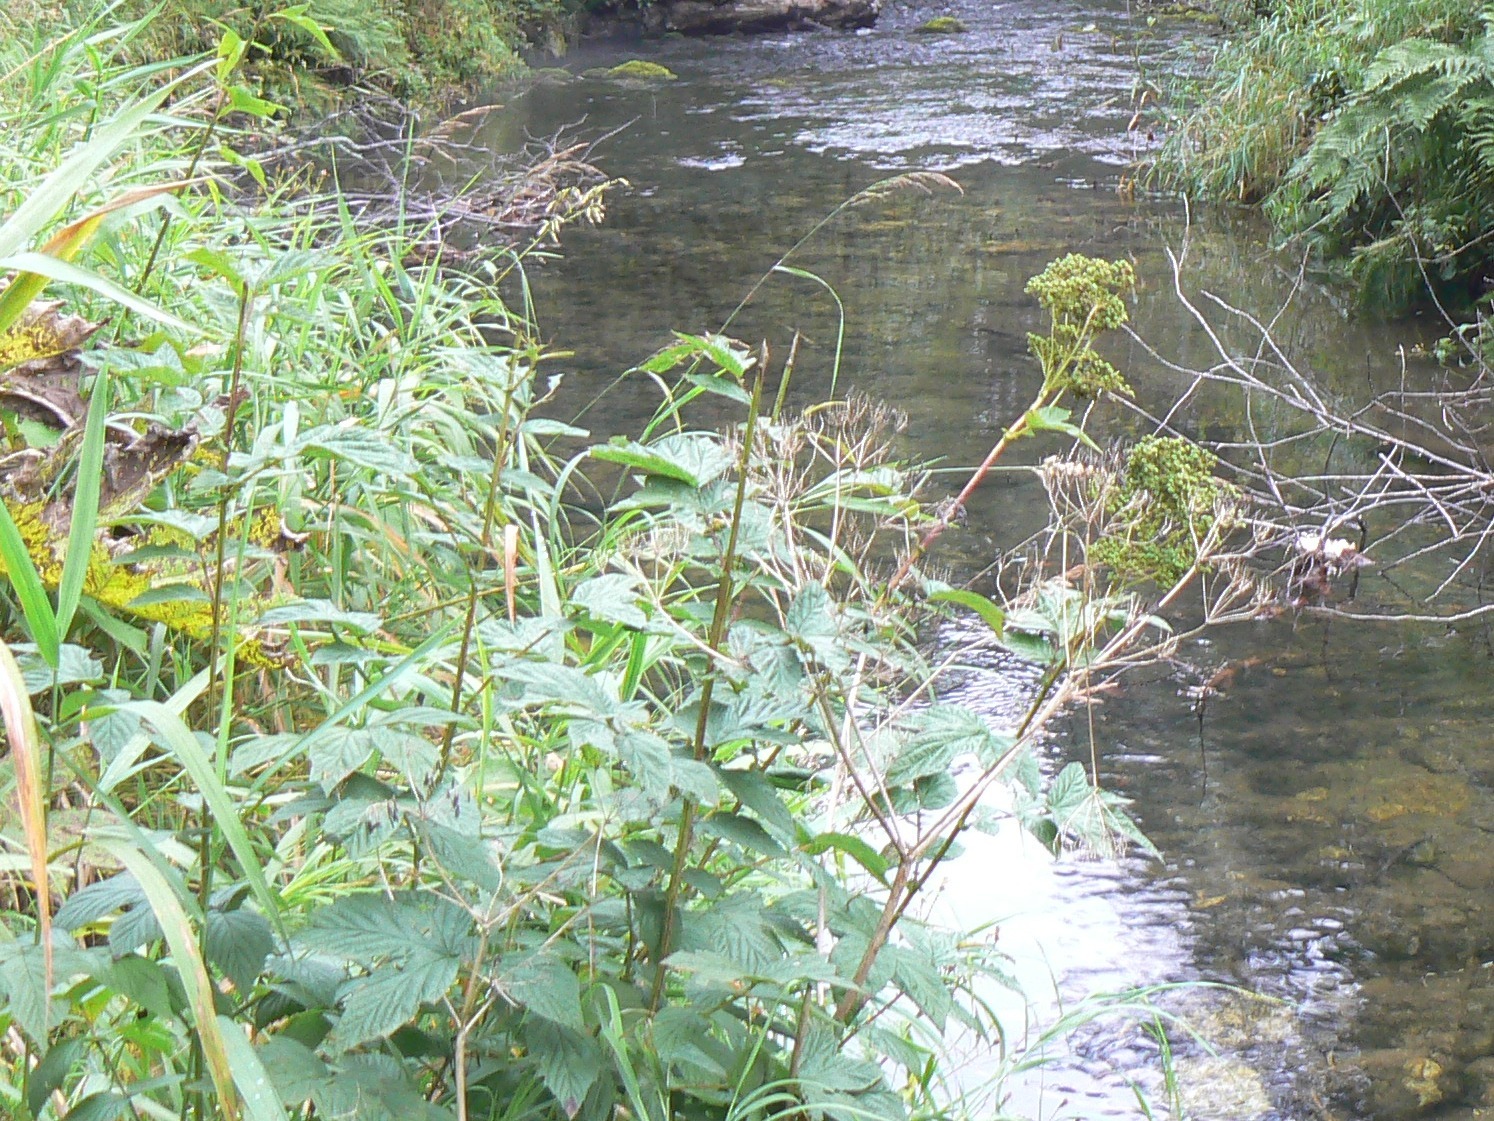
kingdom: Plantae
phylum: Tracheophyta
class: Magnoliopsida
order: Rosales
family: Rosaceae
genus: Filipendula
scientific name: Filipendula ulmaria
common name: Meadowsweet
